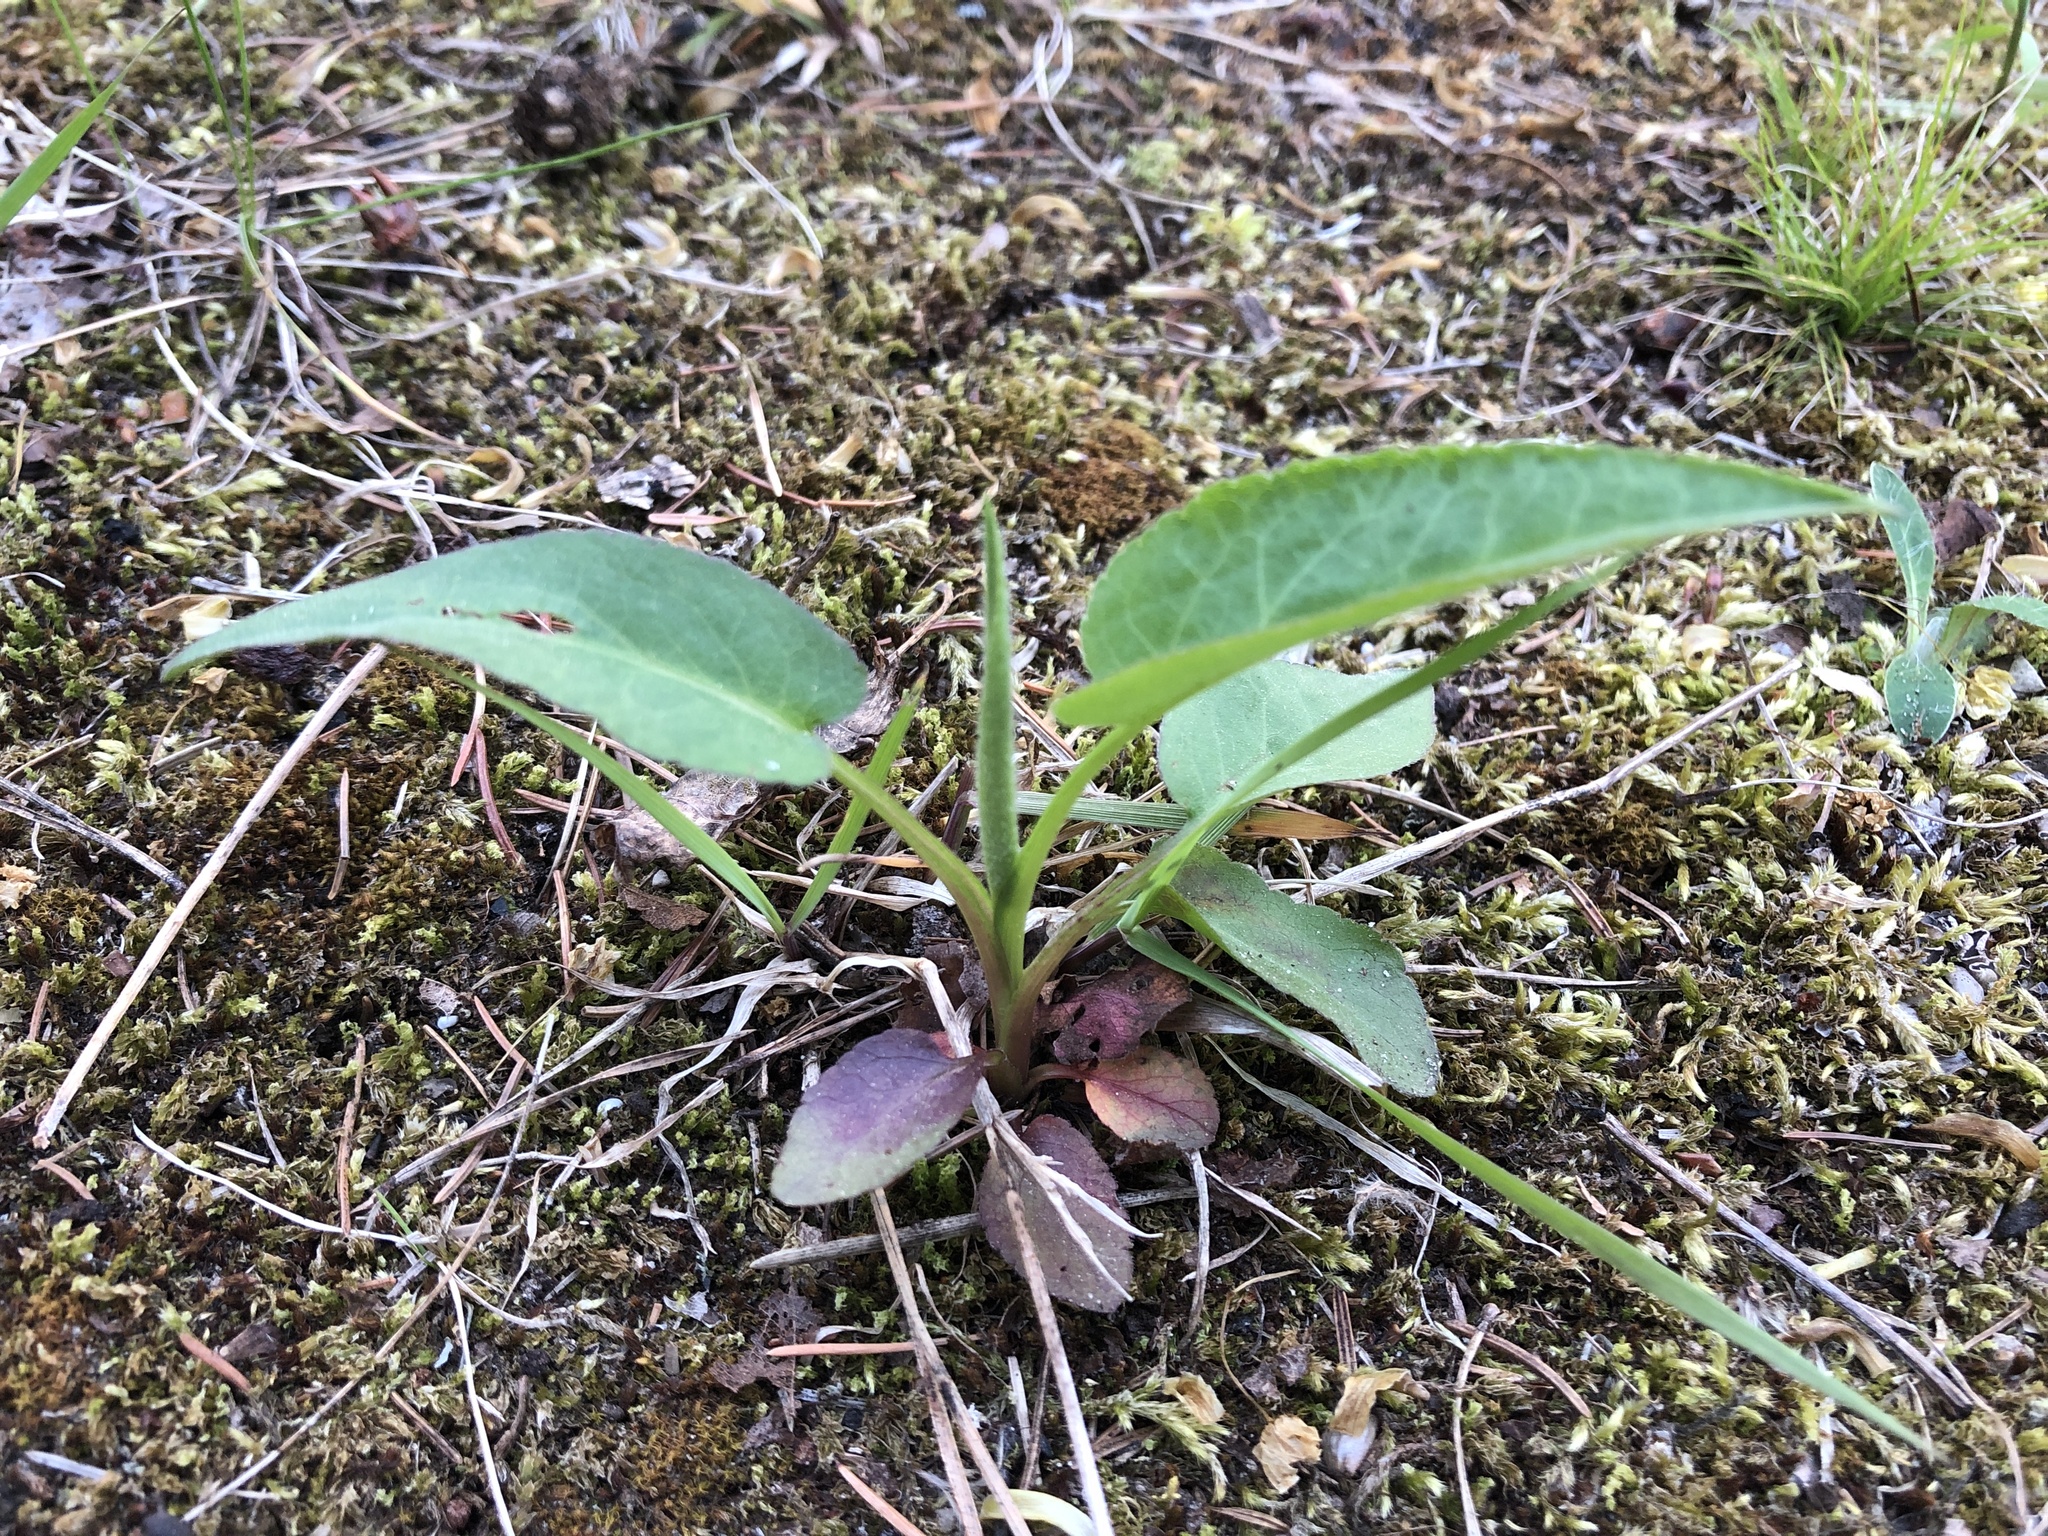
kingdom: Plantae
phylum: Tracheophyta
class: Magnoliopsida
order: Asterales
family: Asteraceae
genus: Symphyotrichum
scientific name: Symphyotrichum urophyllum
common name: Arrow-leaved aster
